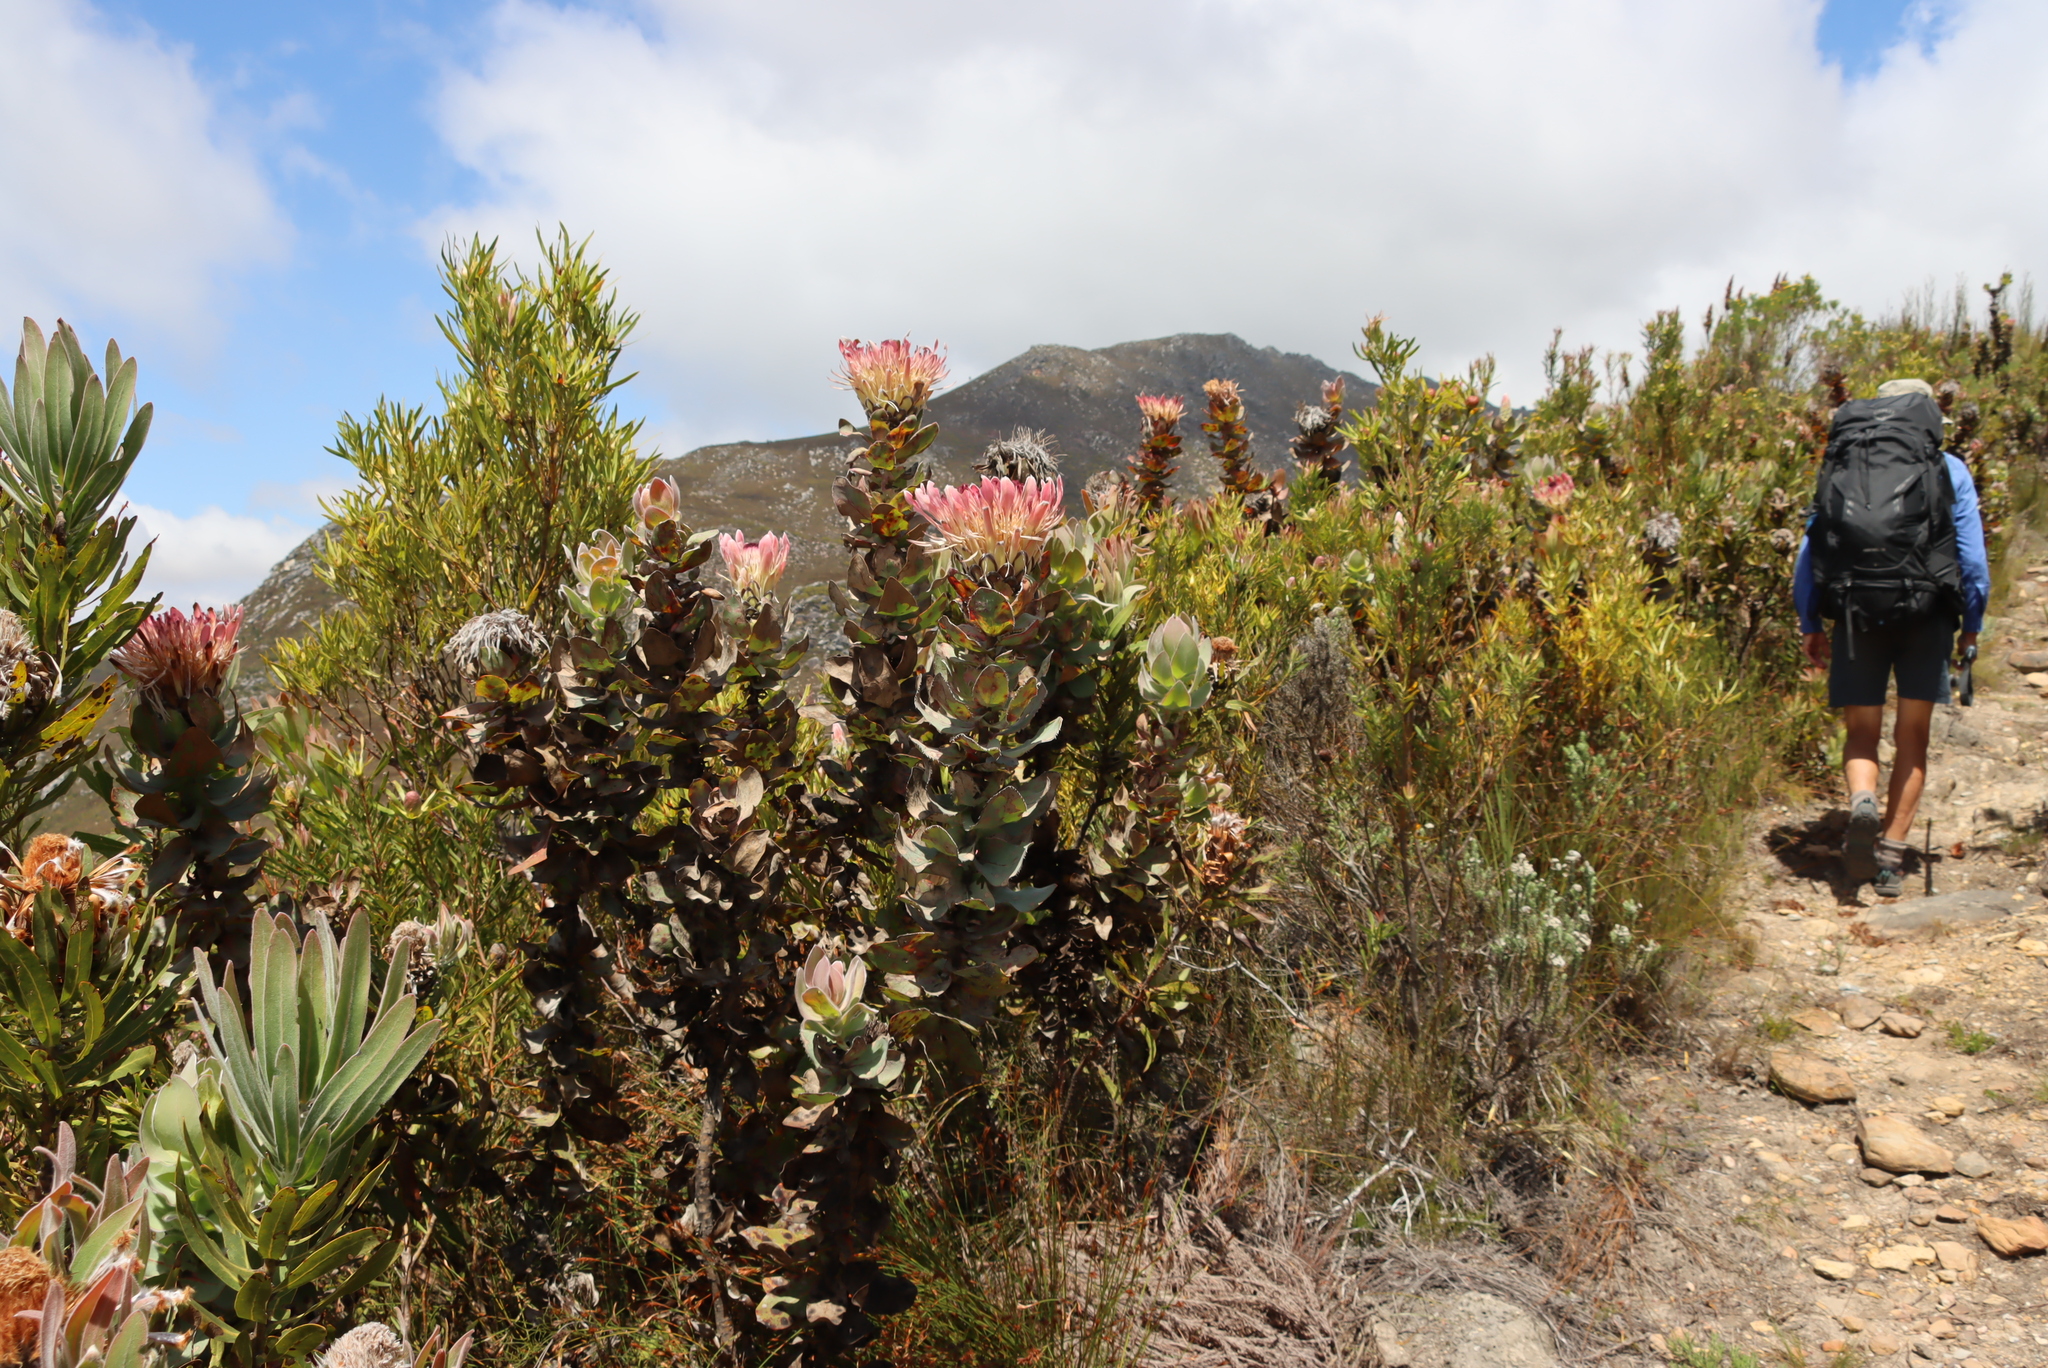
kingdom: Plantae
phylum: Tracheophyta
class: Magnoliopsida
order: Proteales
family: Proteaceae
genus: Protea
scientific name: Protea eximia
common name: Broad-leaved sugarbush
